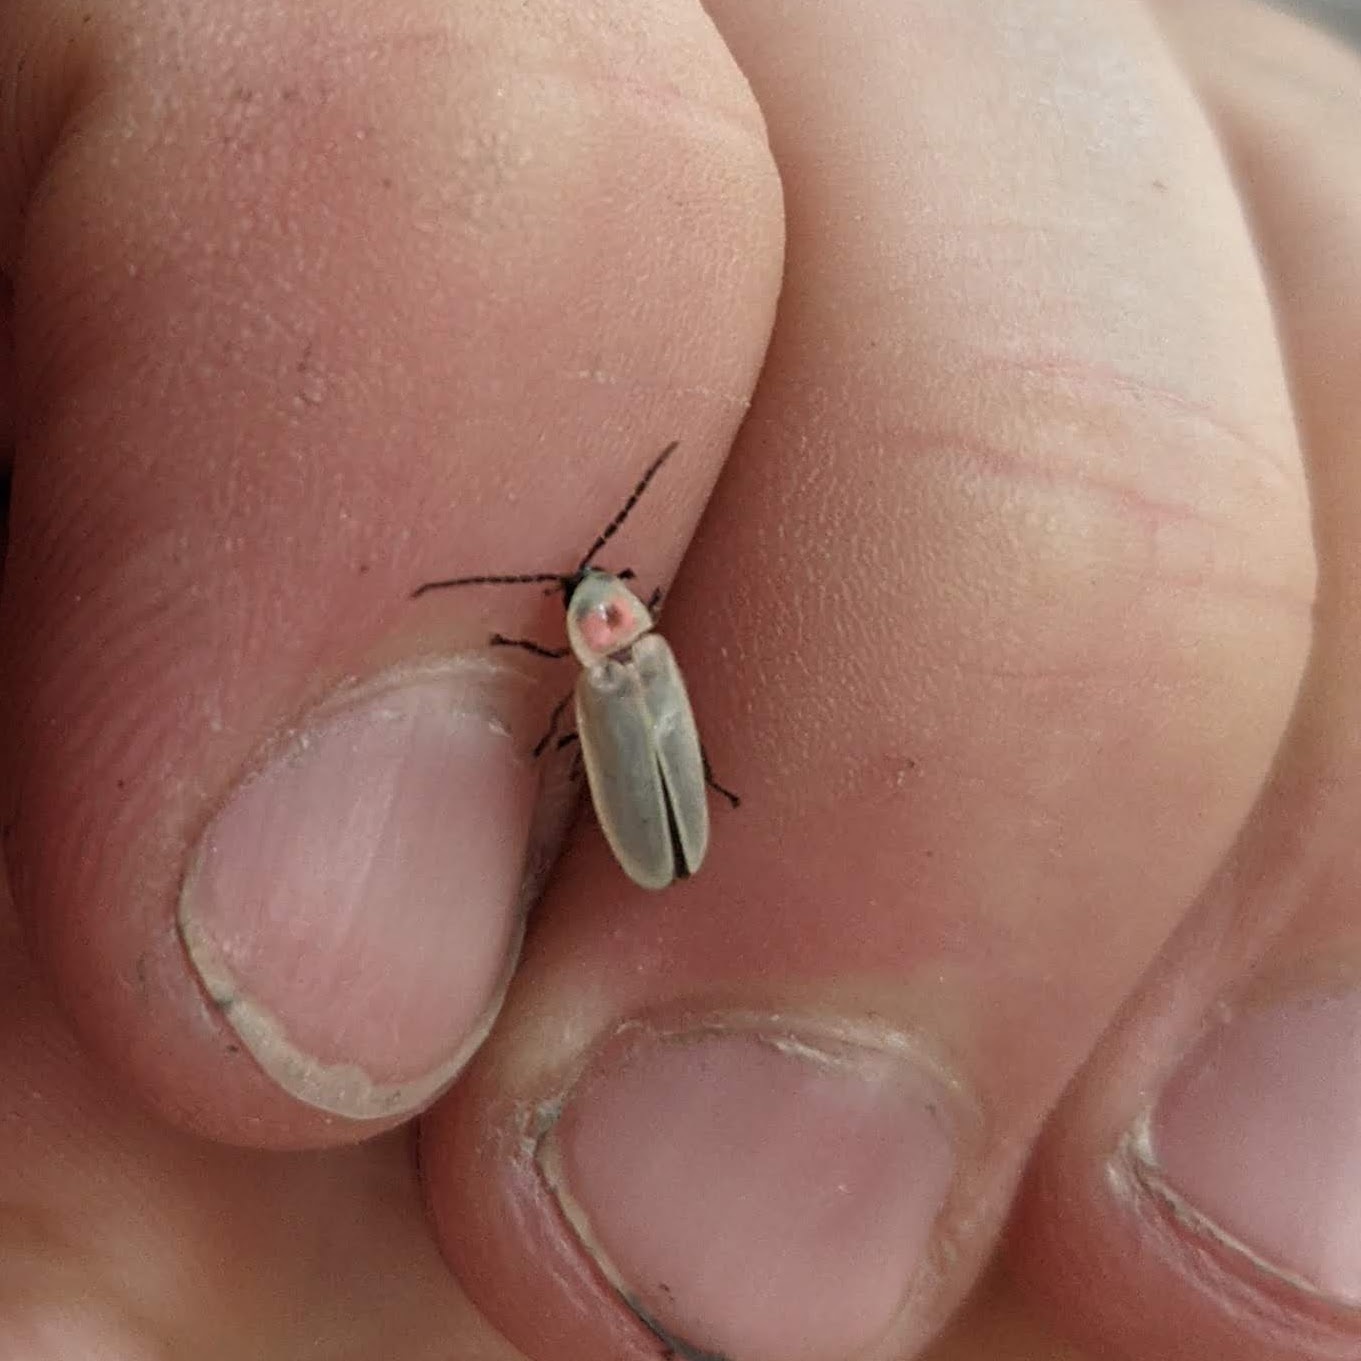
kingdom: Animalia
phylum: Arthropoda
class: Insecta
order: Coleoptera
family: Lampyridae
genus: Photinus
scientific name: Photinus marginellus
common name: Little gray firefly
